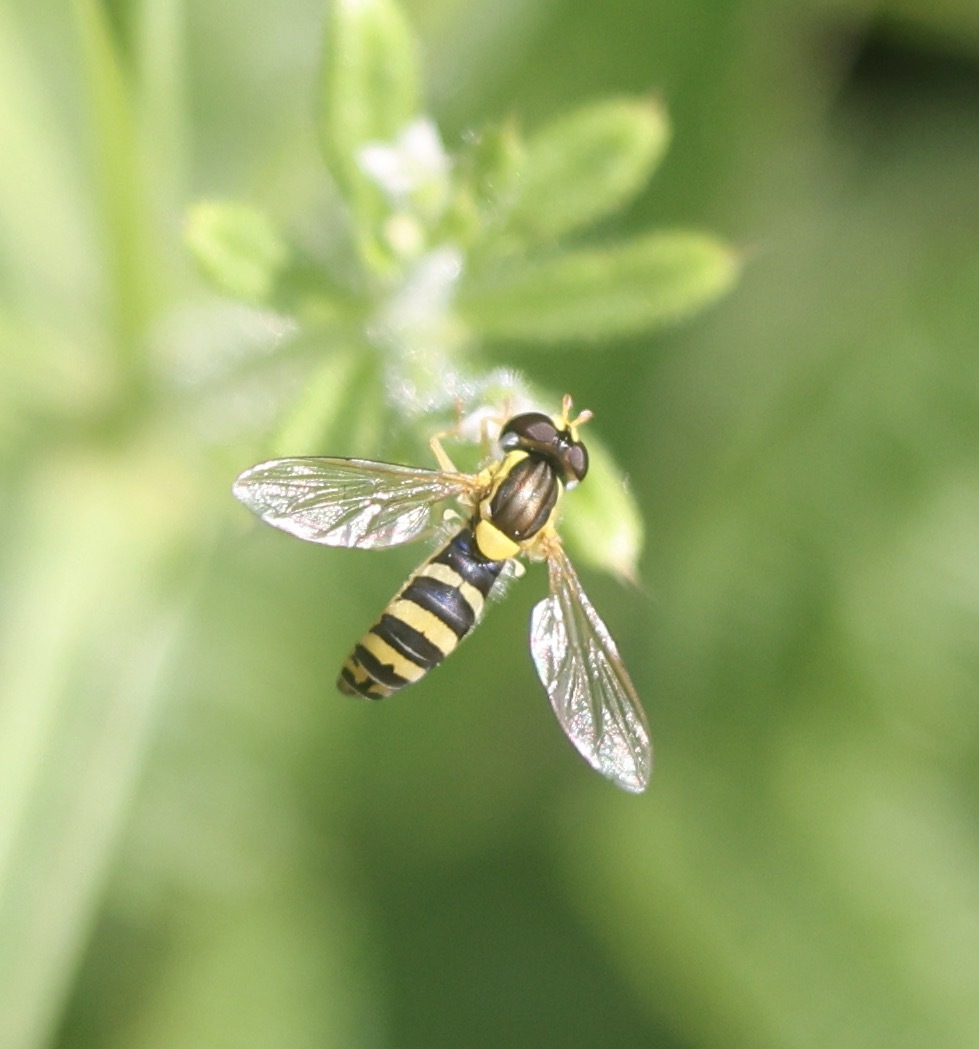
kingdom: Animalia
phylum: Arthropoda
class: Insecta
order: Diptera
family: Syrphidae
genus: Sphaerophoria
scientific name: Sphaerophoria
